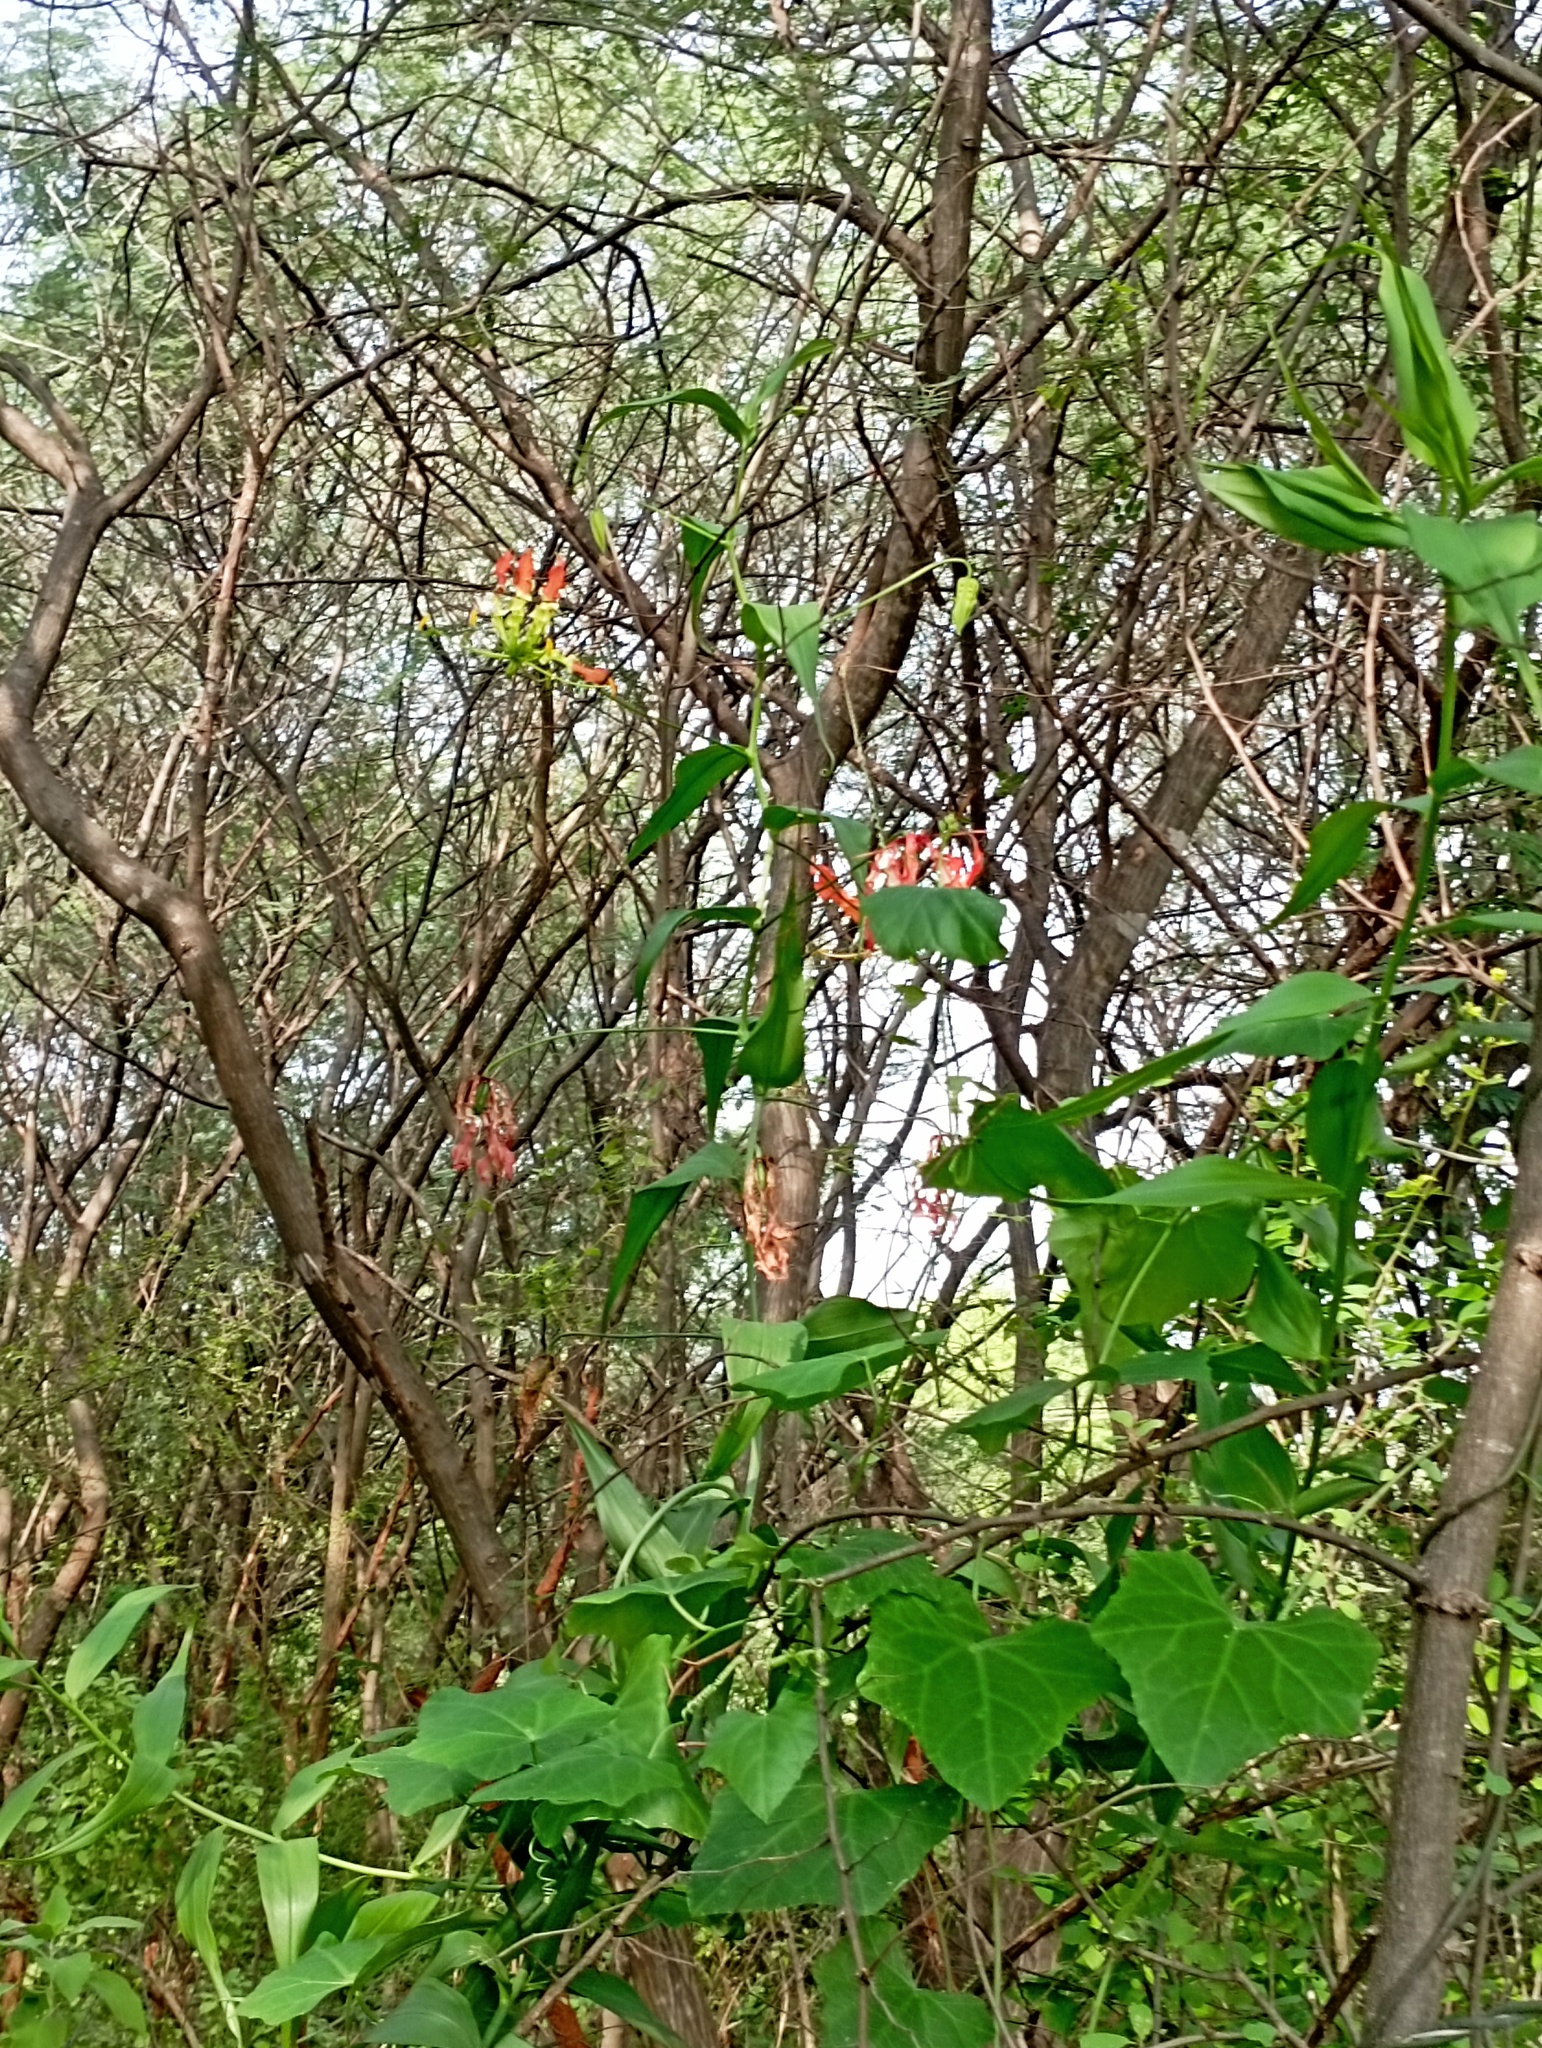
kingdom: Plantae
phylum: Tracheophyta
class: Liliopsida
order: Liliales
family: Colchicaceae
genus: Gloriosa
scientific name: Gloriosa superba
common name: Flame lily
